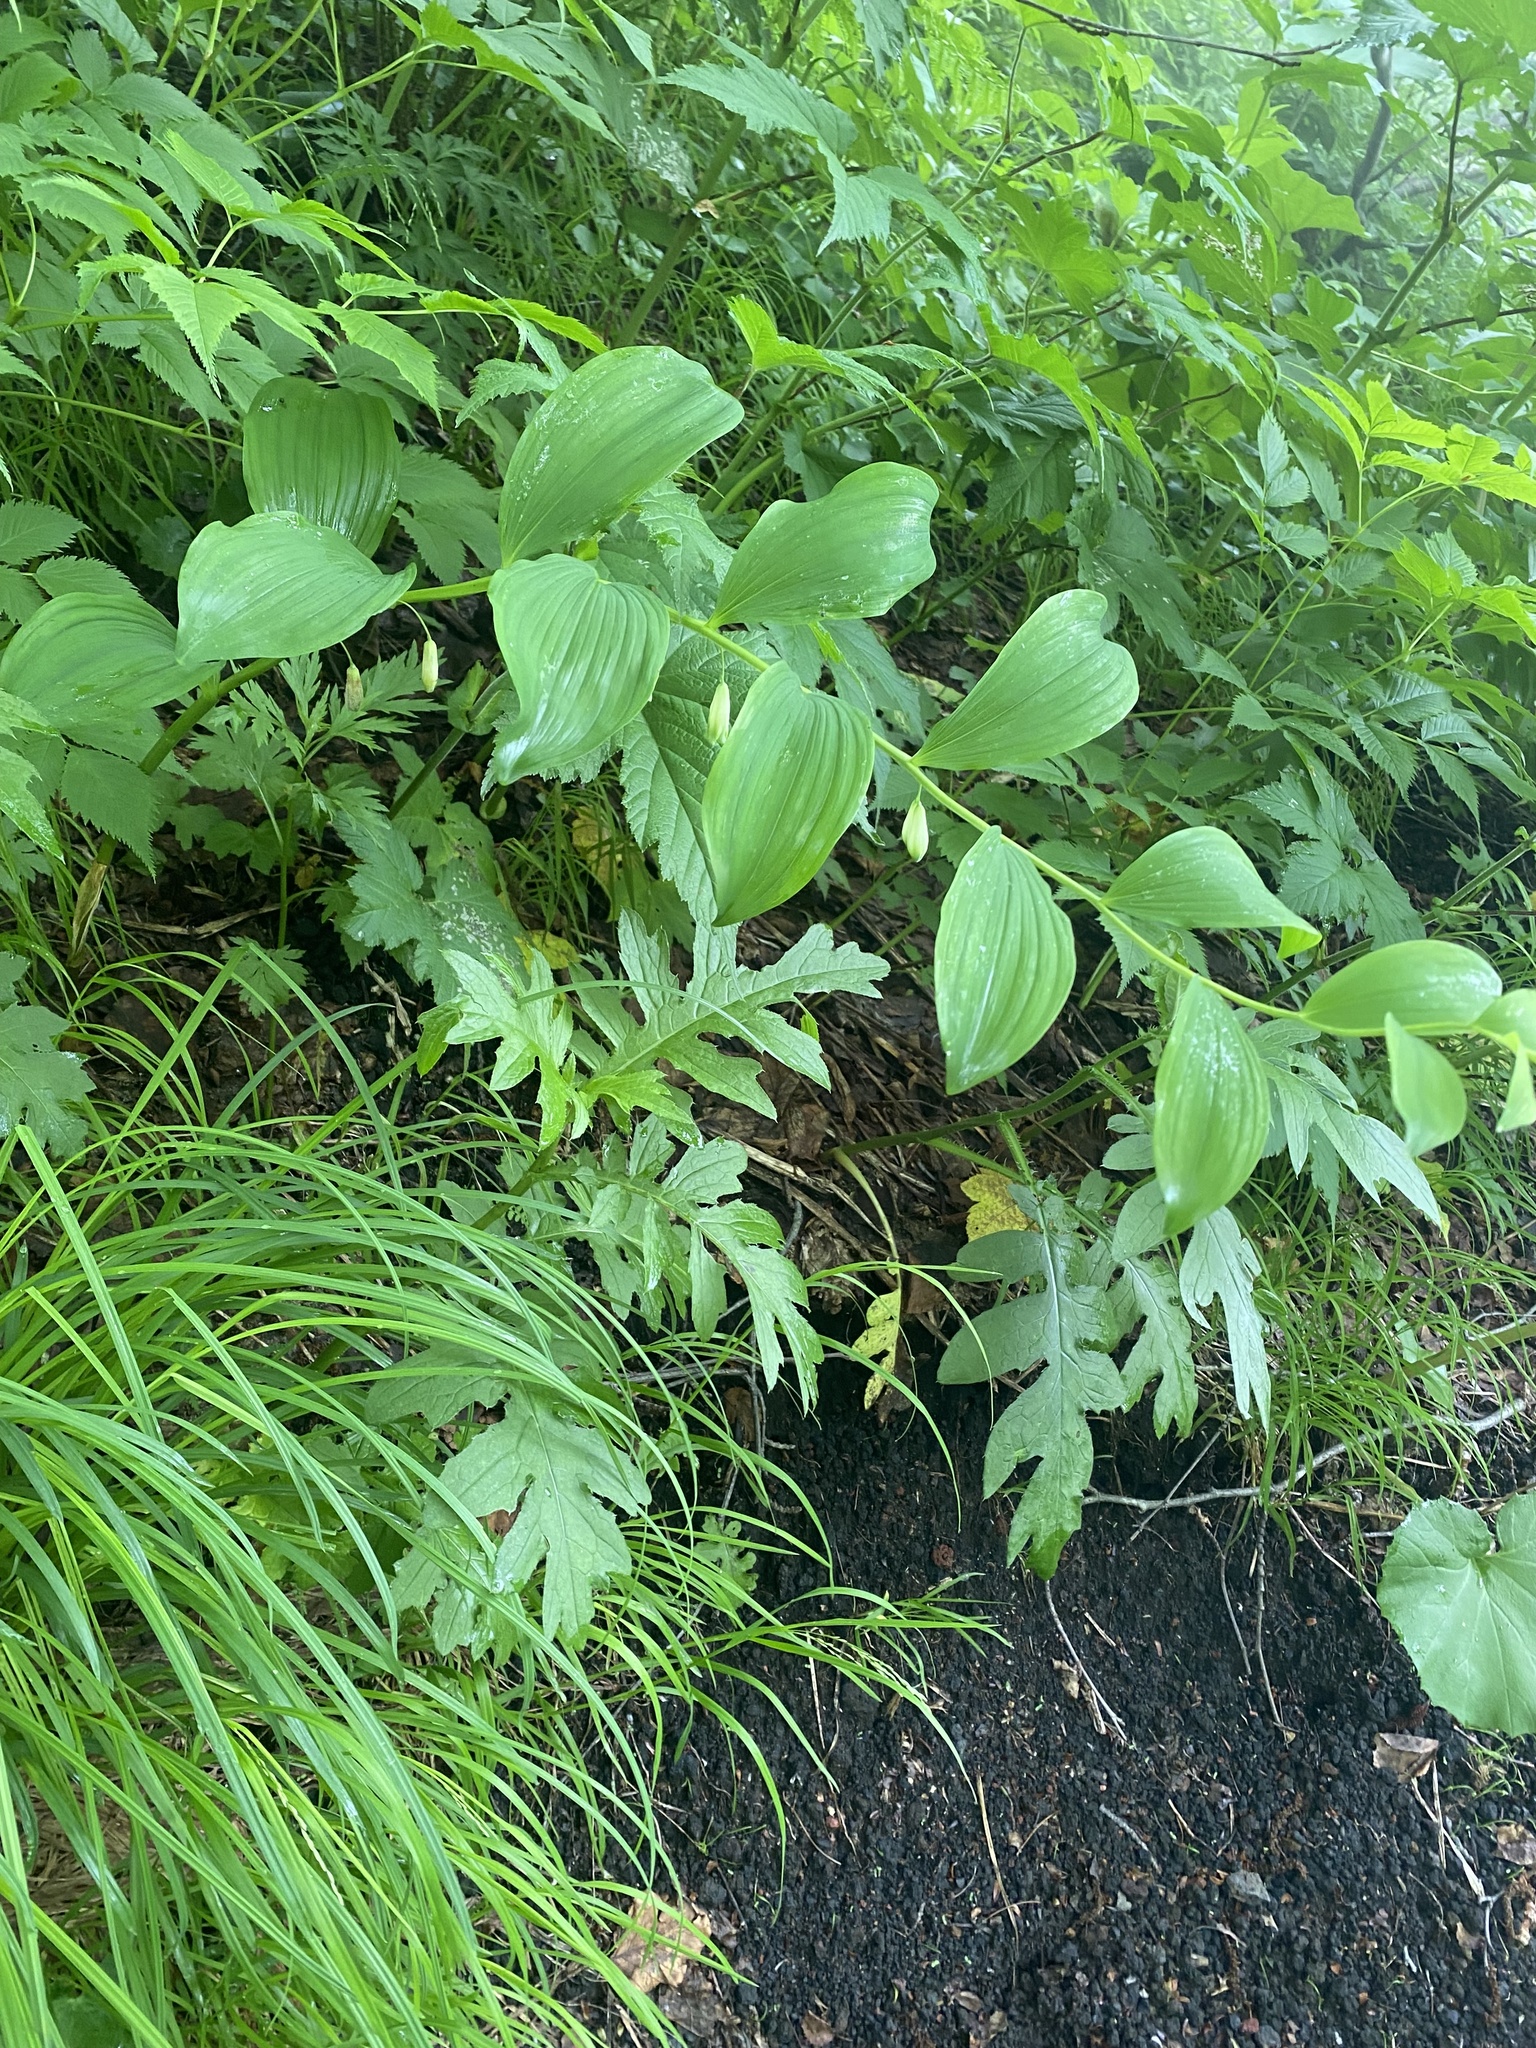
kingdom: Plantae
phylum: Tracheophyta
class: Liliopsida
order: Asparagales
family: Asparagaceae
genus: Polygonatum
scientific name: Polygonatum odoratum
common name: Angular solomon's-seal
